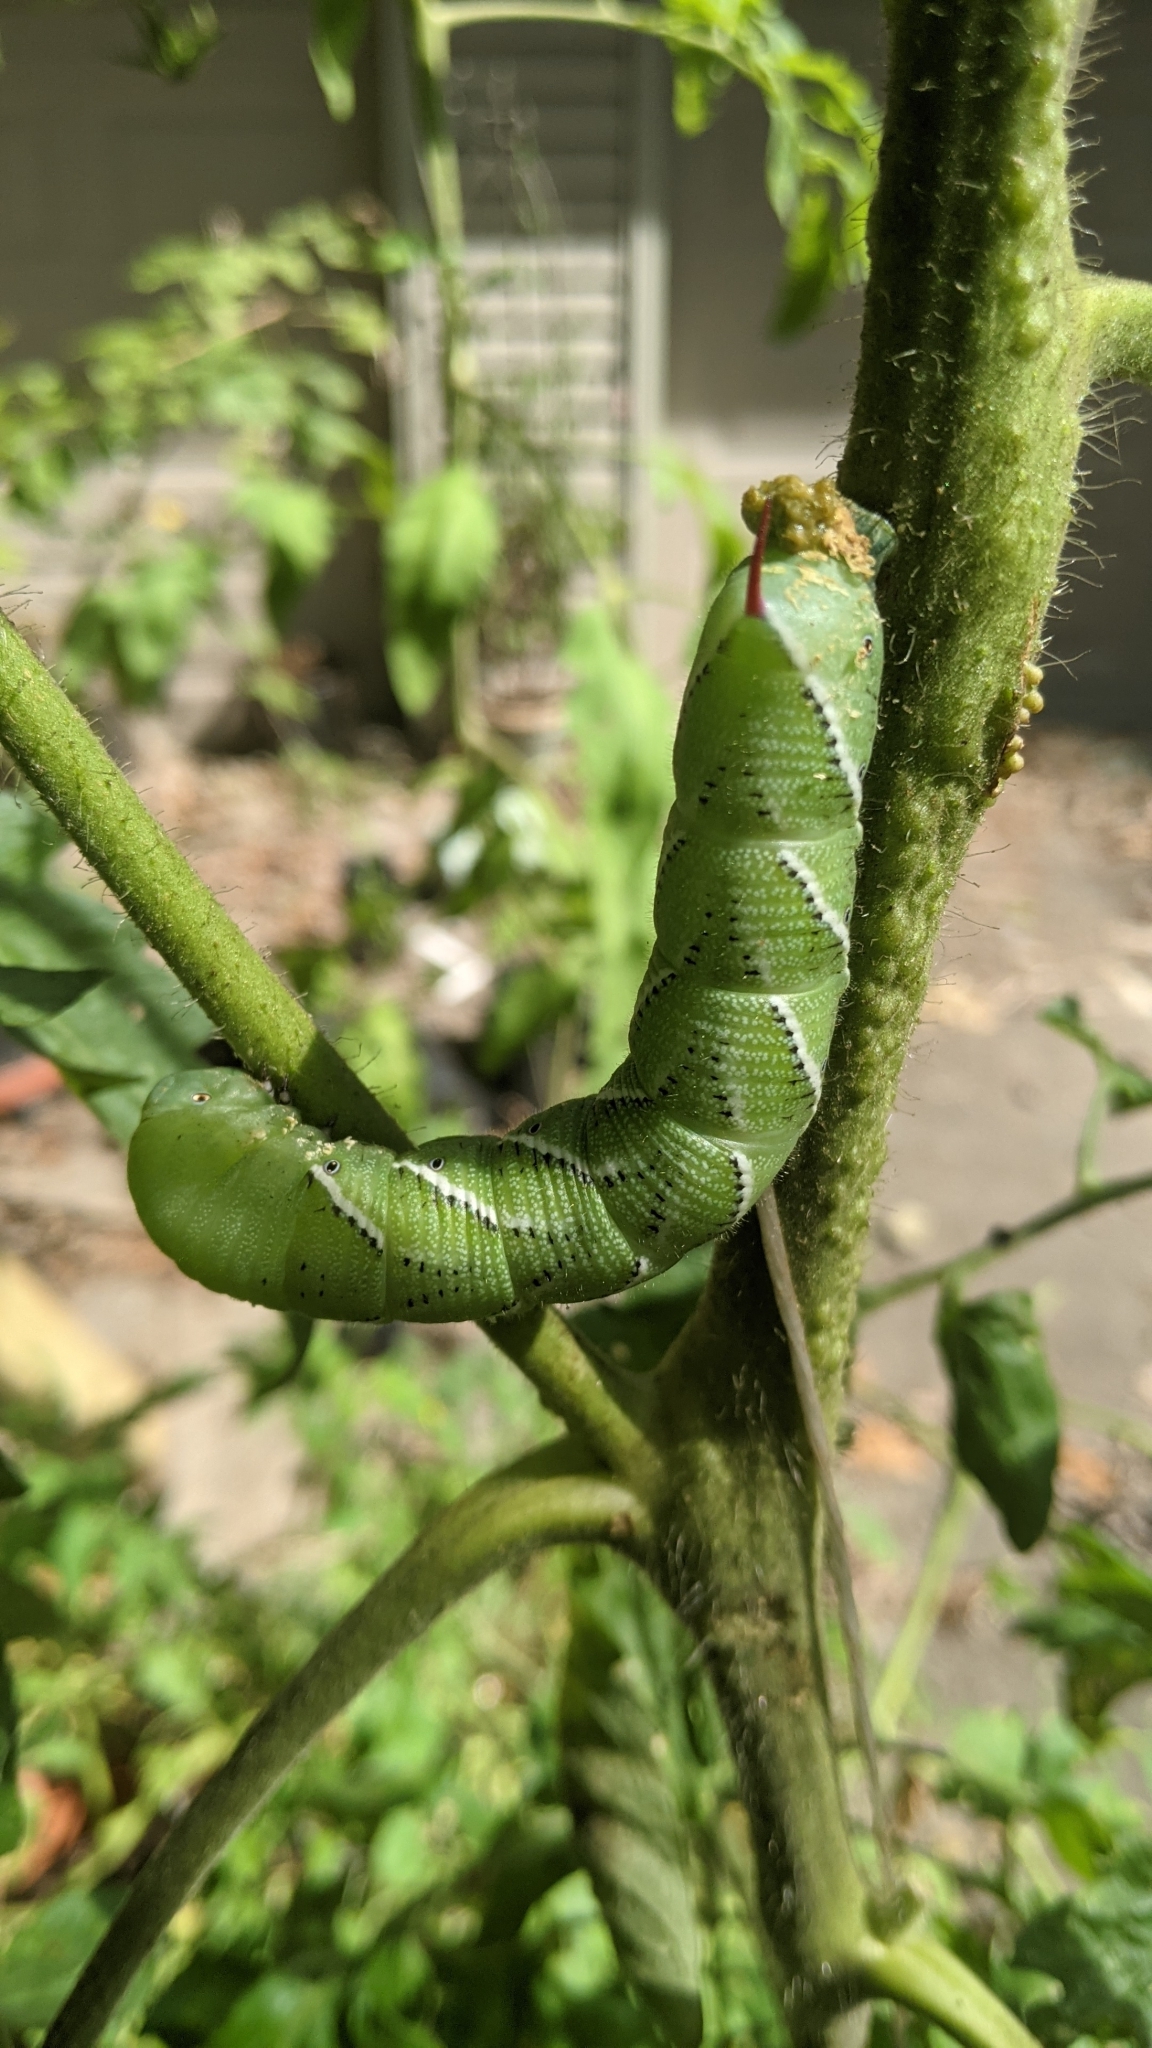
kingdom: Animalia
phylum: Arthropoda
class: Insecta
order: Lepidoptera
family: Sphingidae
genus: Manduca
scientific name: Manduca sexta
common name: Carolina sphinx
